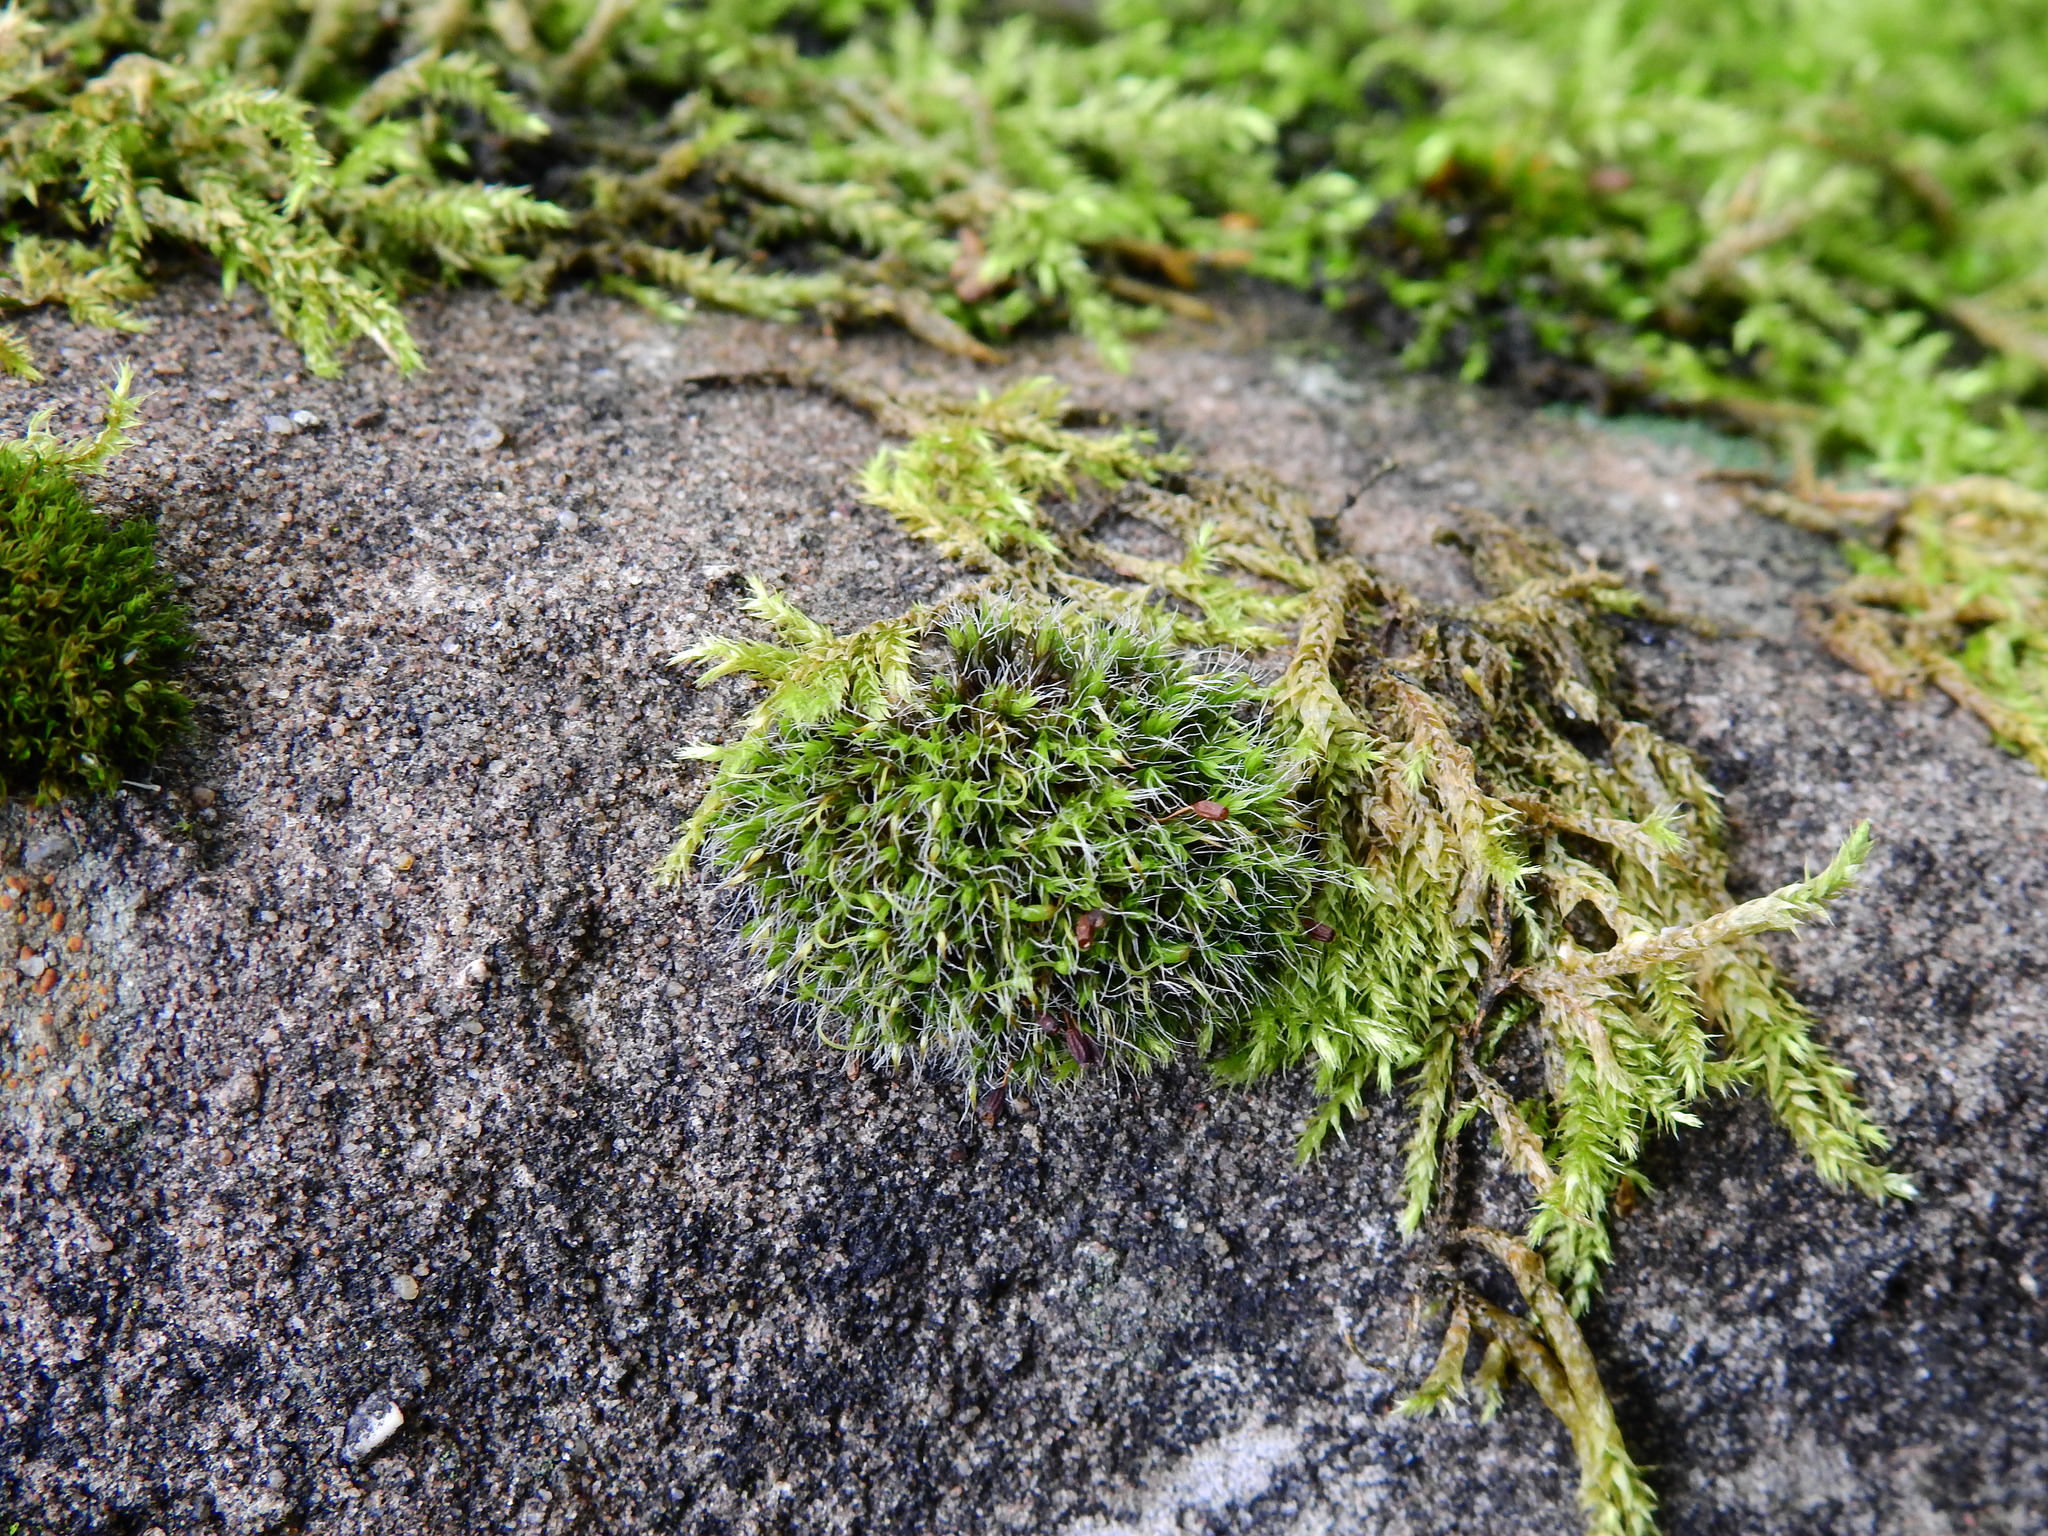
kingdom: Plantae
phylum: Bryophyta
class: Bryopsida
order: Grimmiales
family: Grimmiaceae
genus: Grimmia
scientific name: Grimmia pulvinata
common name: Grey-cushioned grimmia
